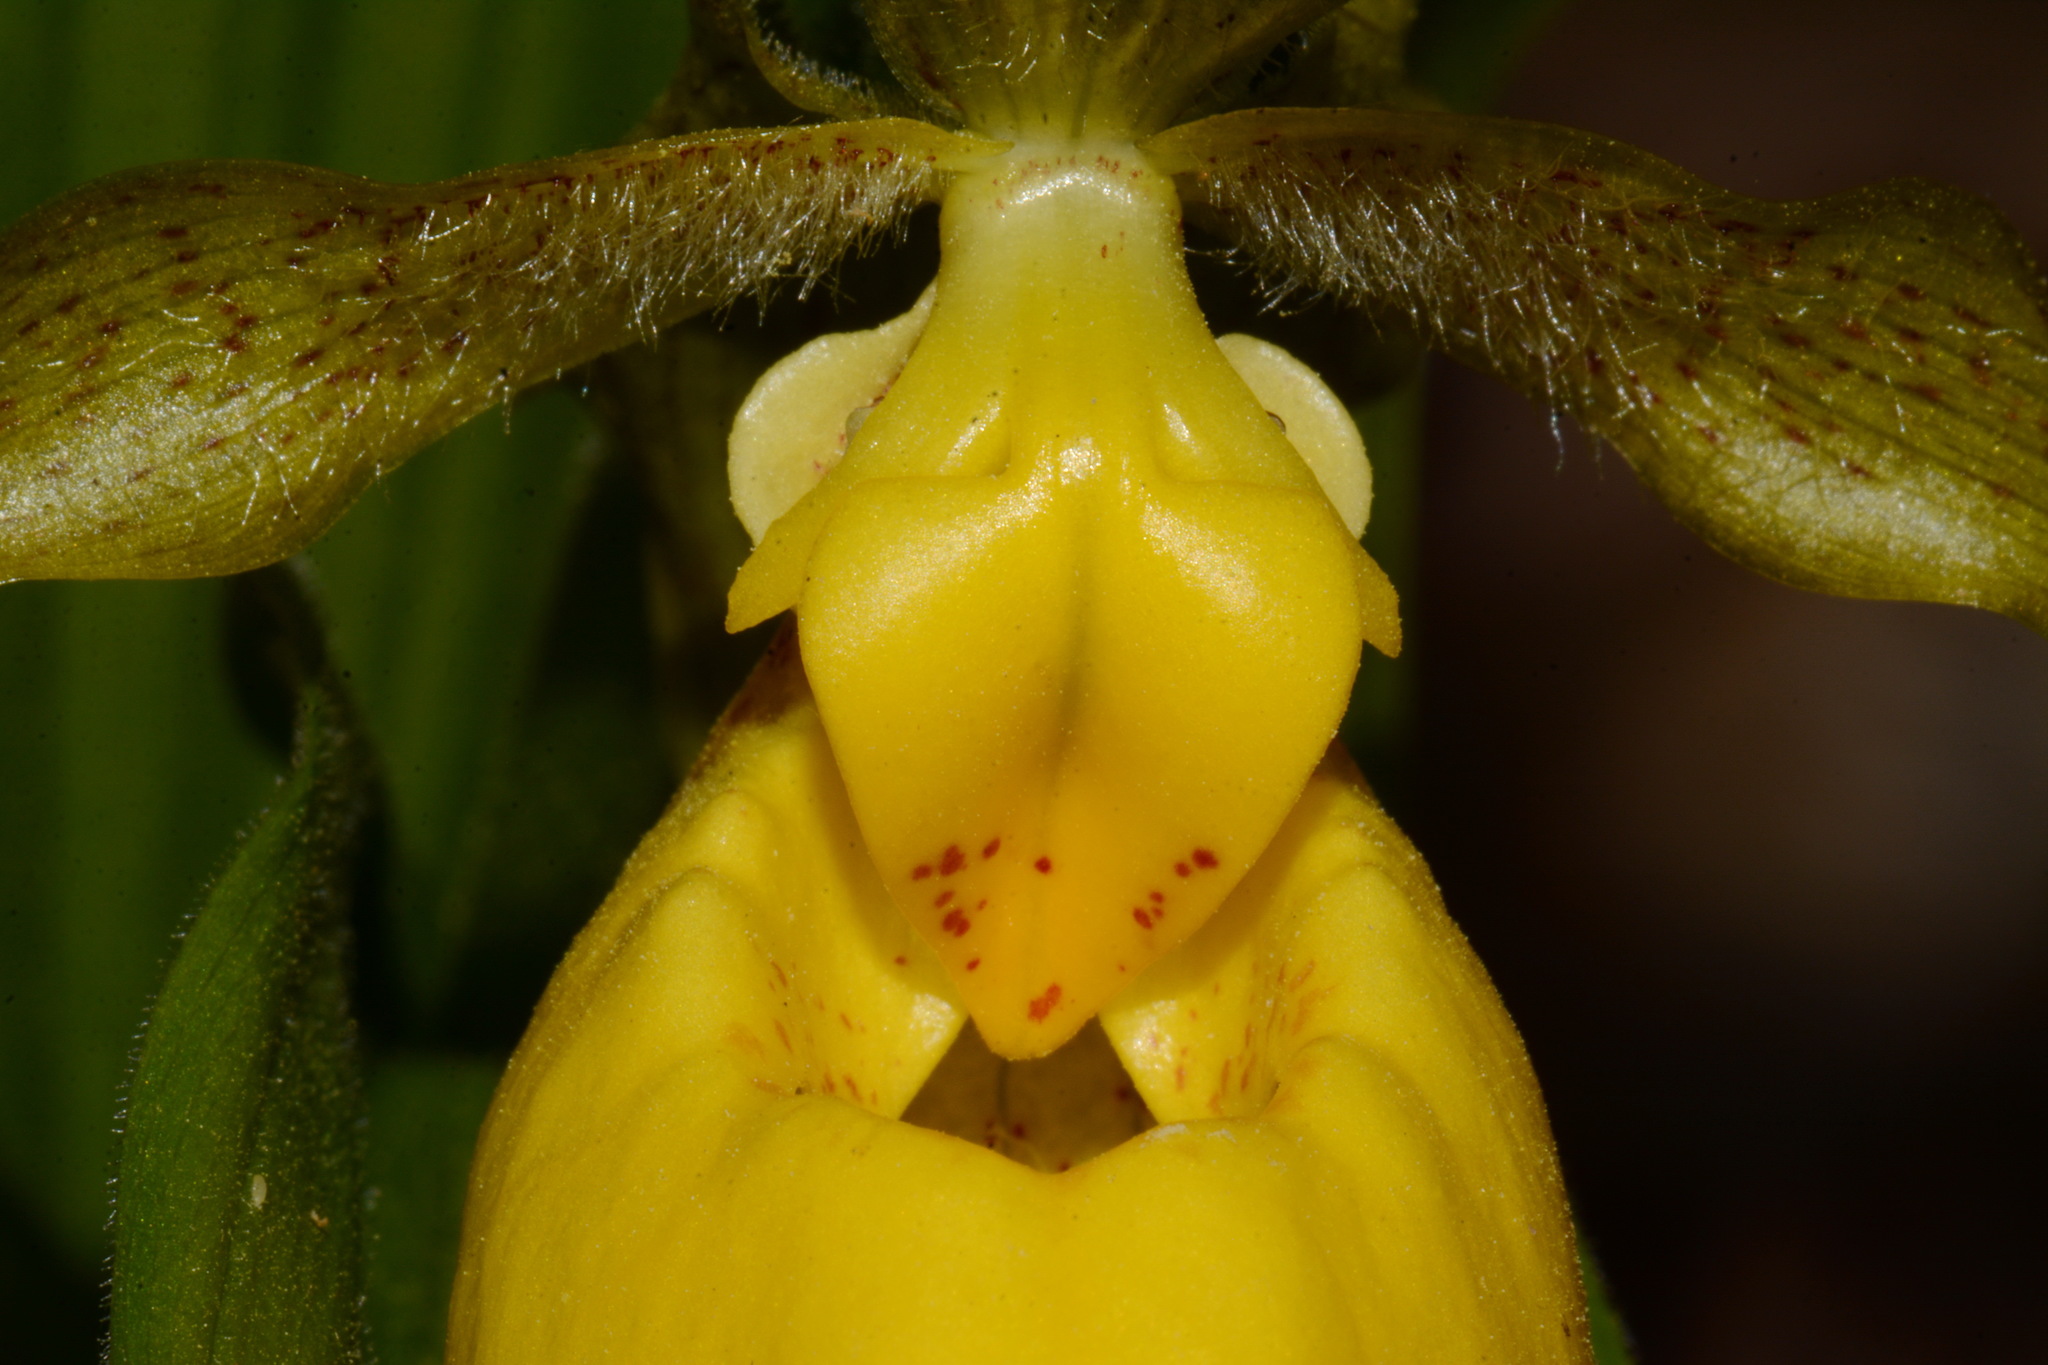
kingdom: Plantae
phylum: Tracheophyta
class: Liliopsida
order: Asparagales
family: Orchidaceae
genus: Cypripedium
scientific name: Cypripedium parviflorum
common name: American yellow lady's-slipper
